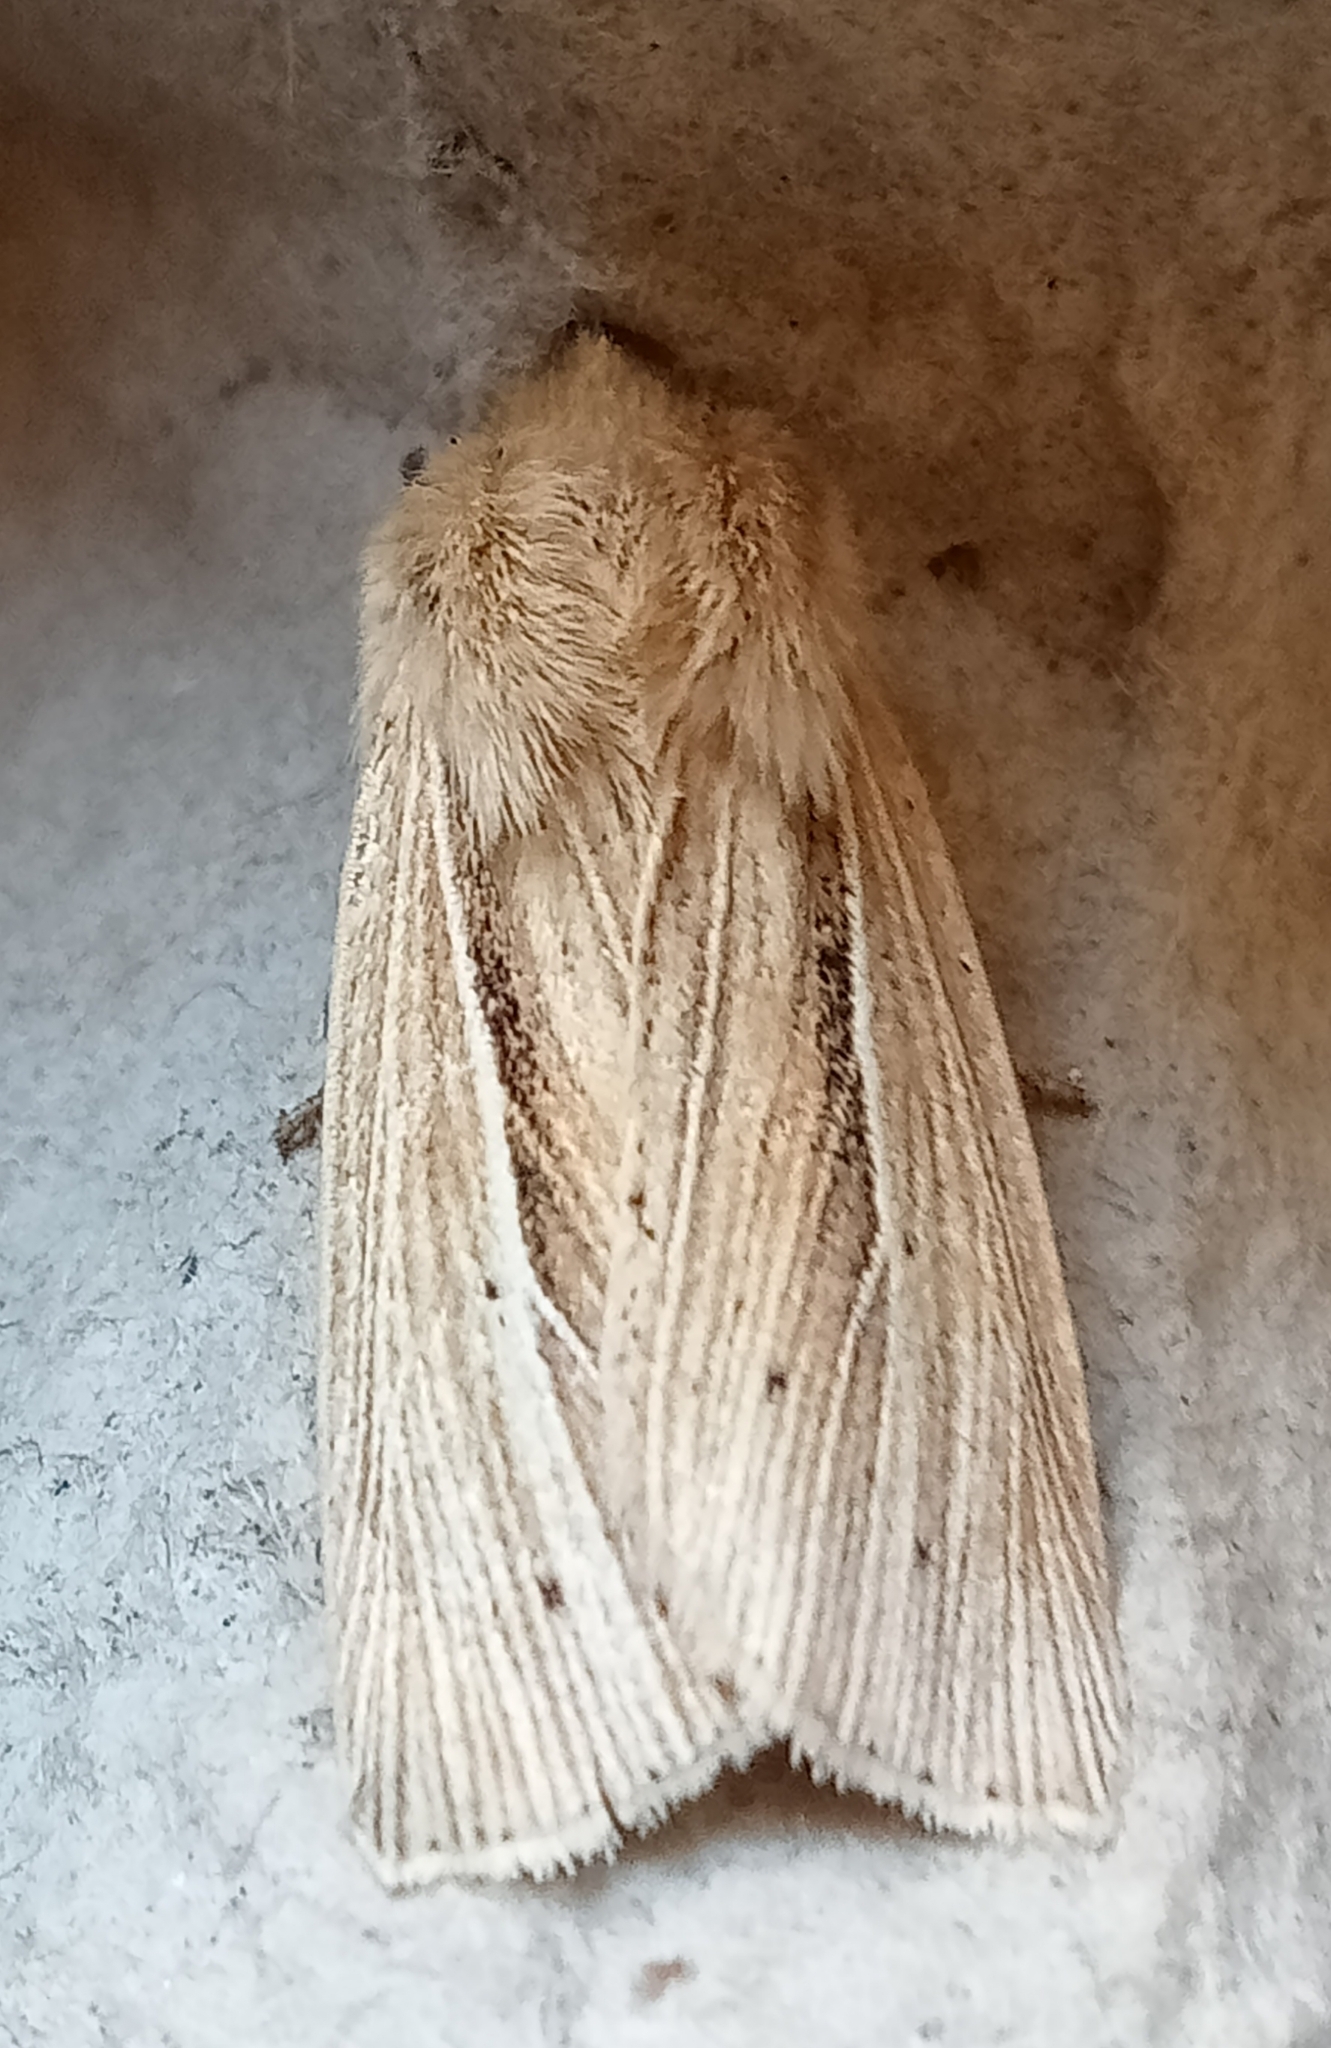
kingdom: Animalia
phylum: Arthropoda
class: Insecta
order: Lepidoptera
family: Noctuidae
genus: Mythimna
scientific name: Mythimna impura
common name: Smoky wainscot
